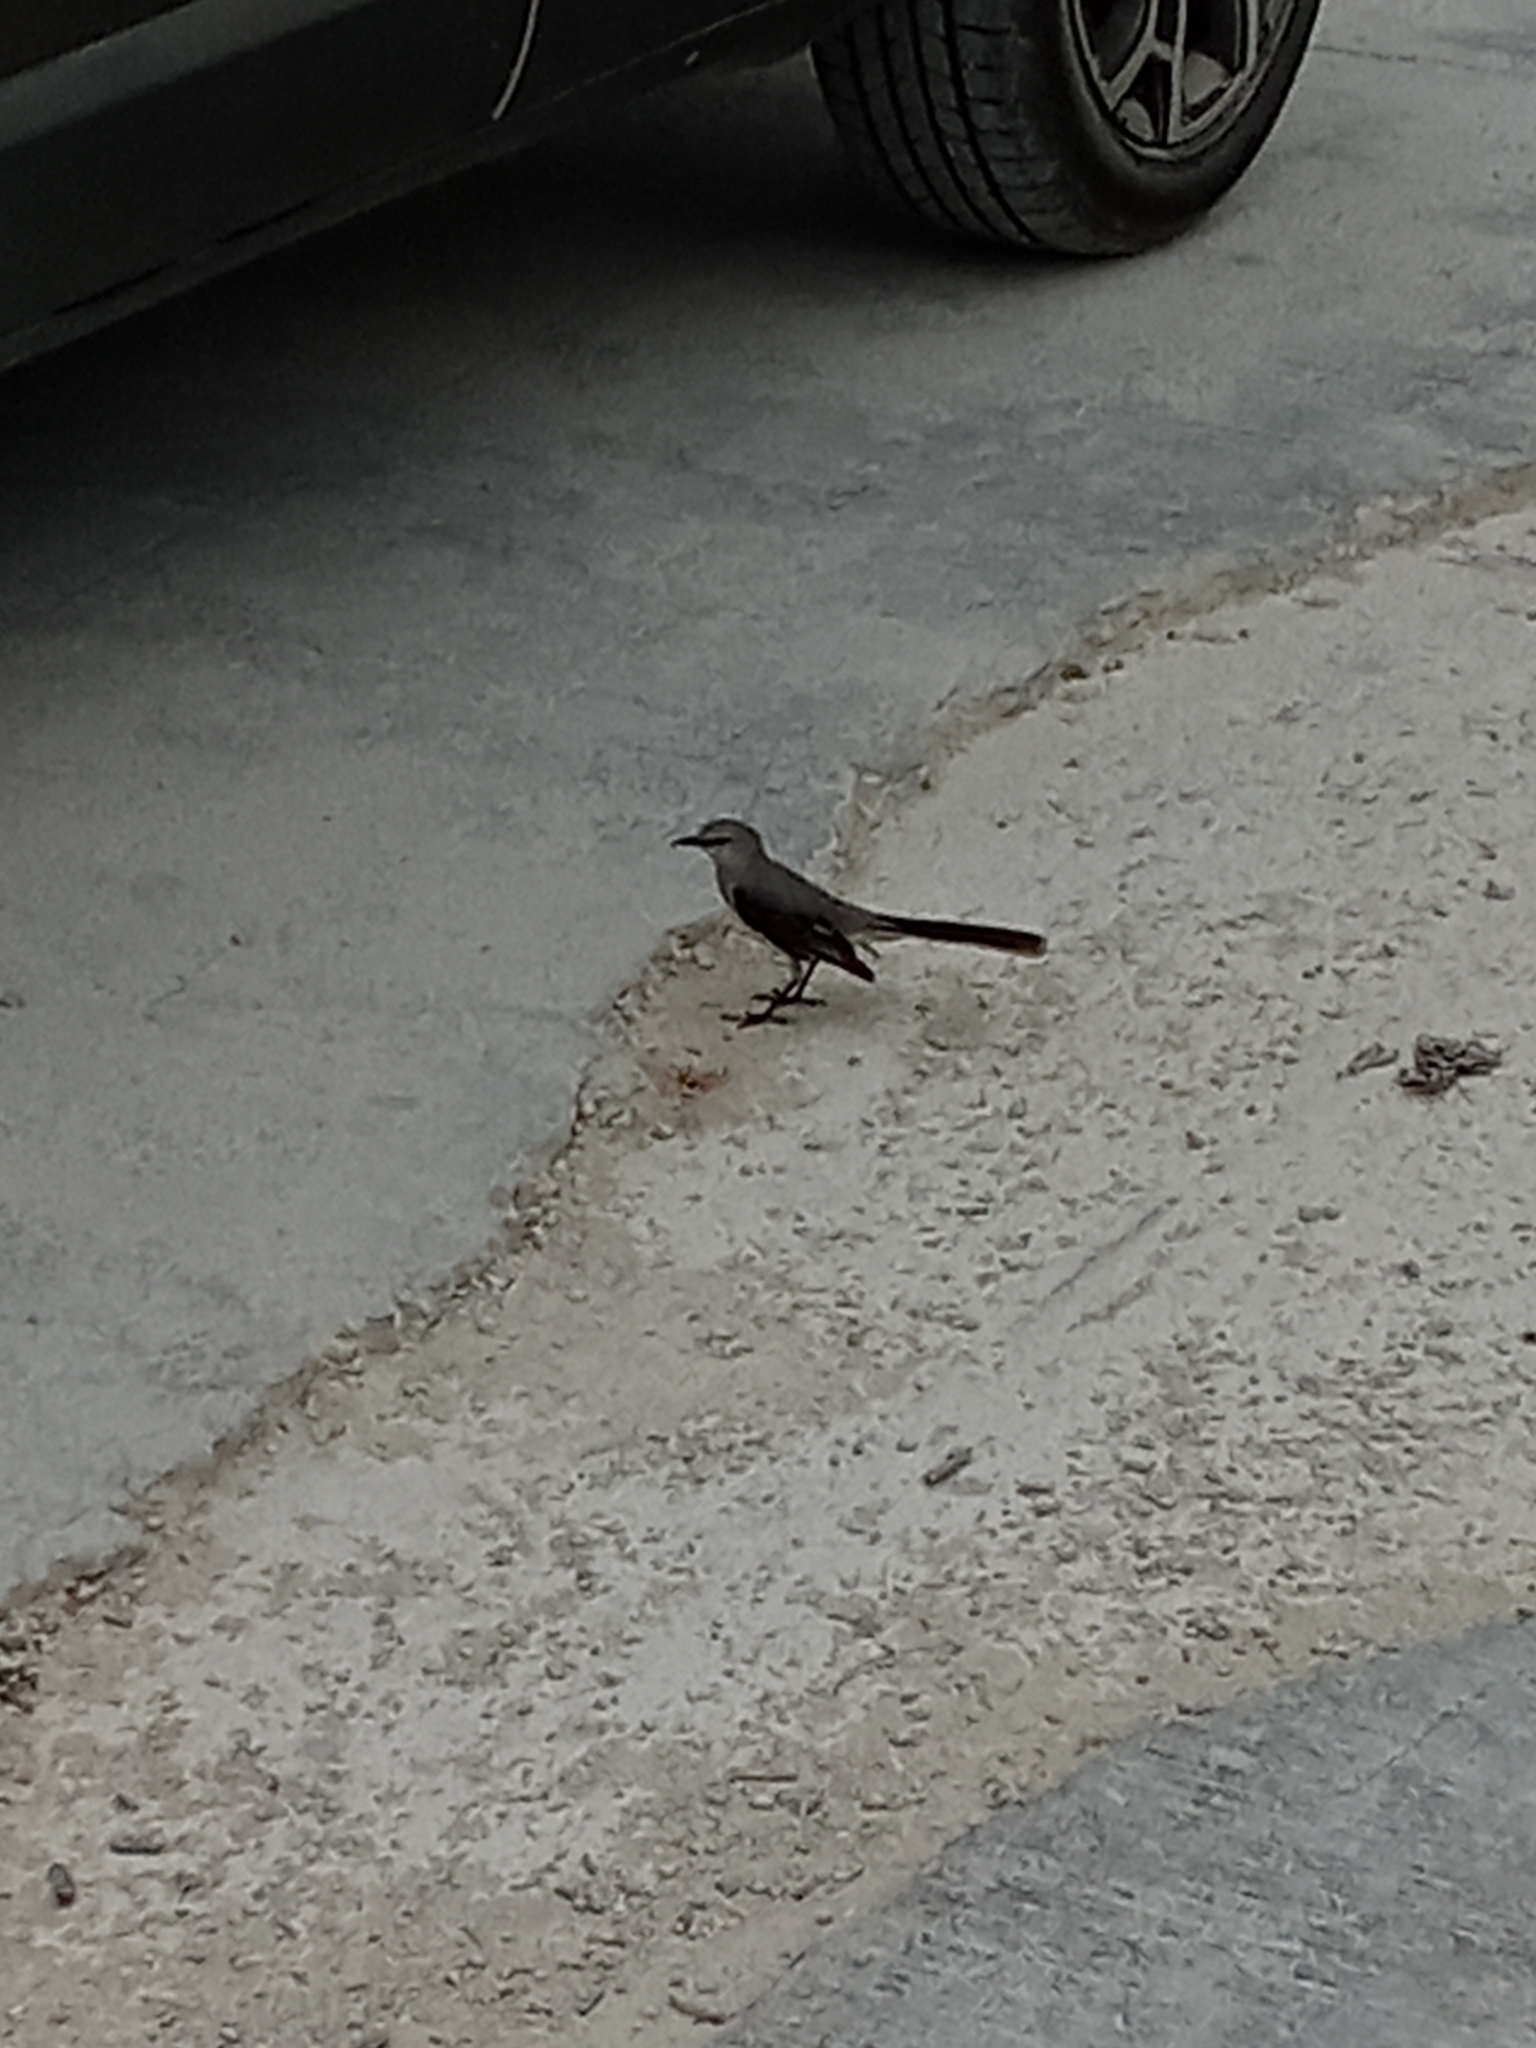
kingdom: Animalia
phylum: Chordata
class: Aves
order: Passeriformes
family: Mimidae
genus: Mimus
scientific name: Mimus gilvus
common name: Tropical mockingbird
